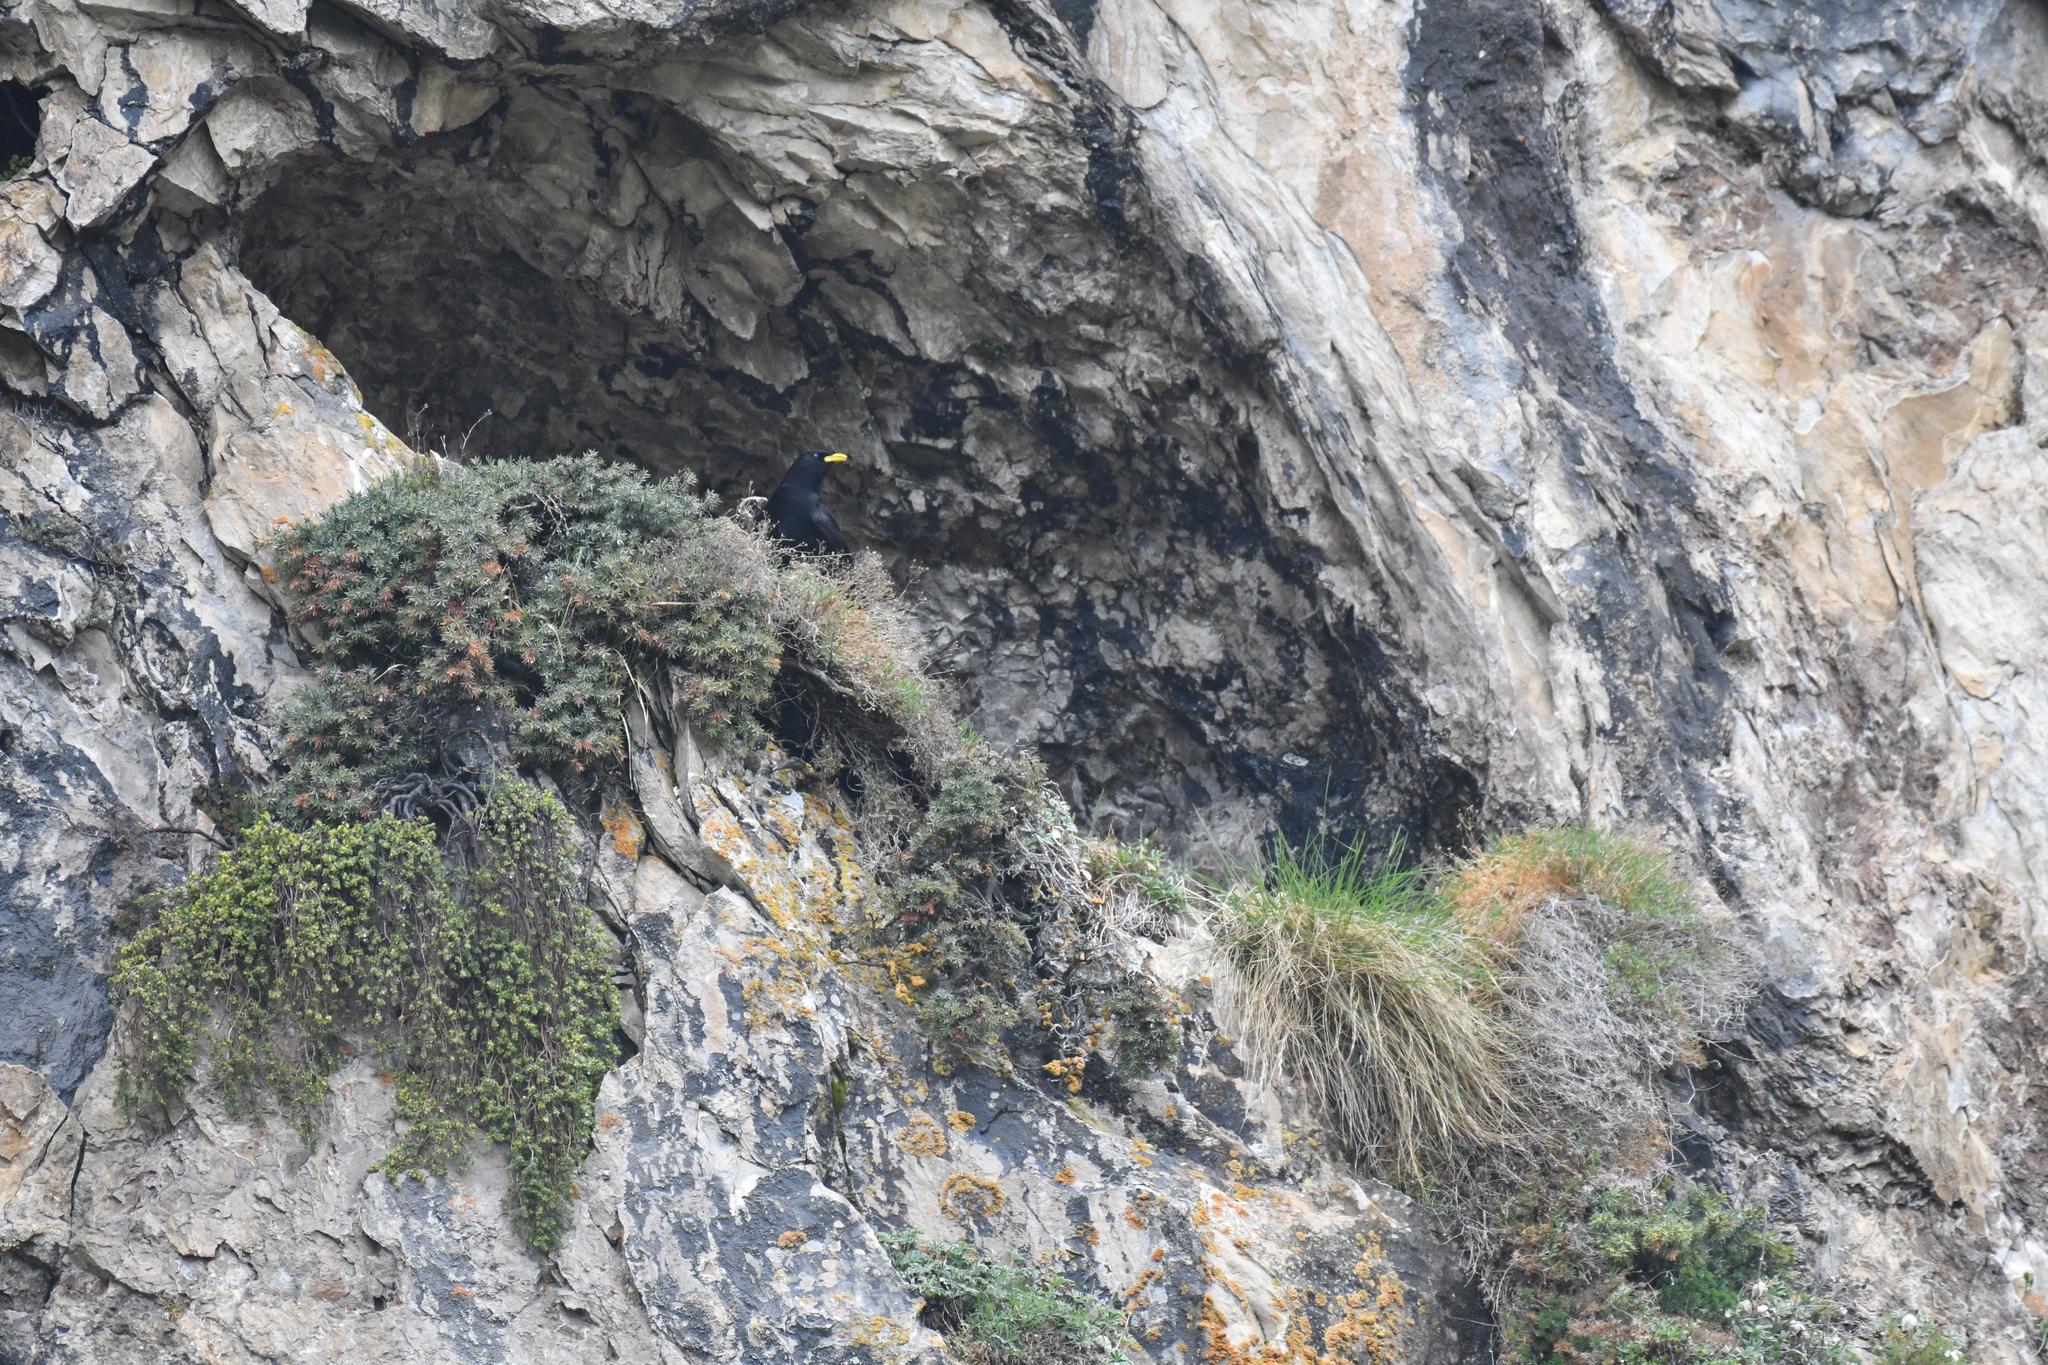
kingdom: Animalia
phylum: Chordata
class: Aves
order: Passeriformes
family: Corvidae
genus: Pyrrhocorax
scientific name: Pyrrhocorax graculus
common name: Alpine chough
